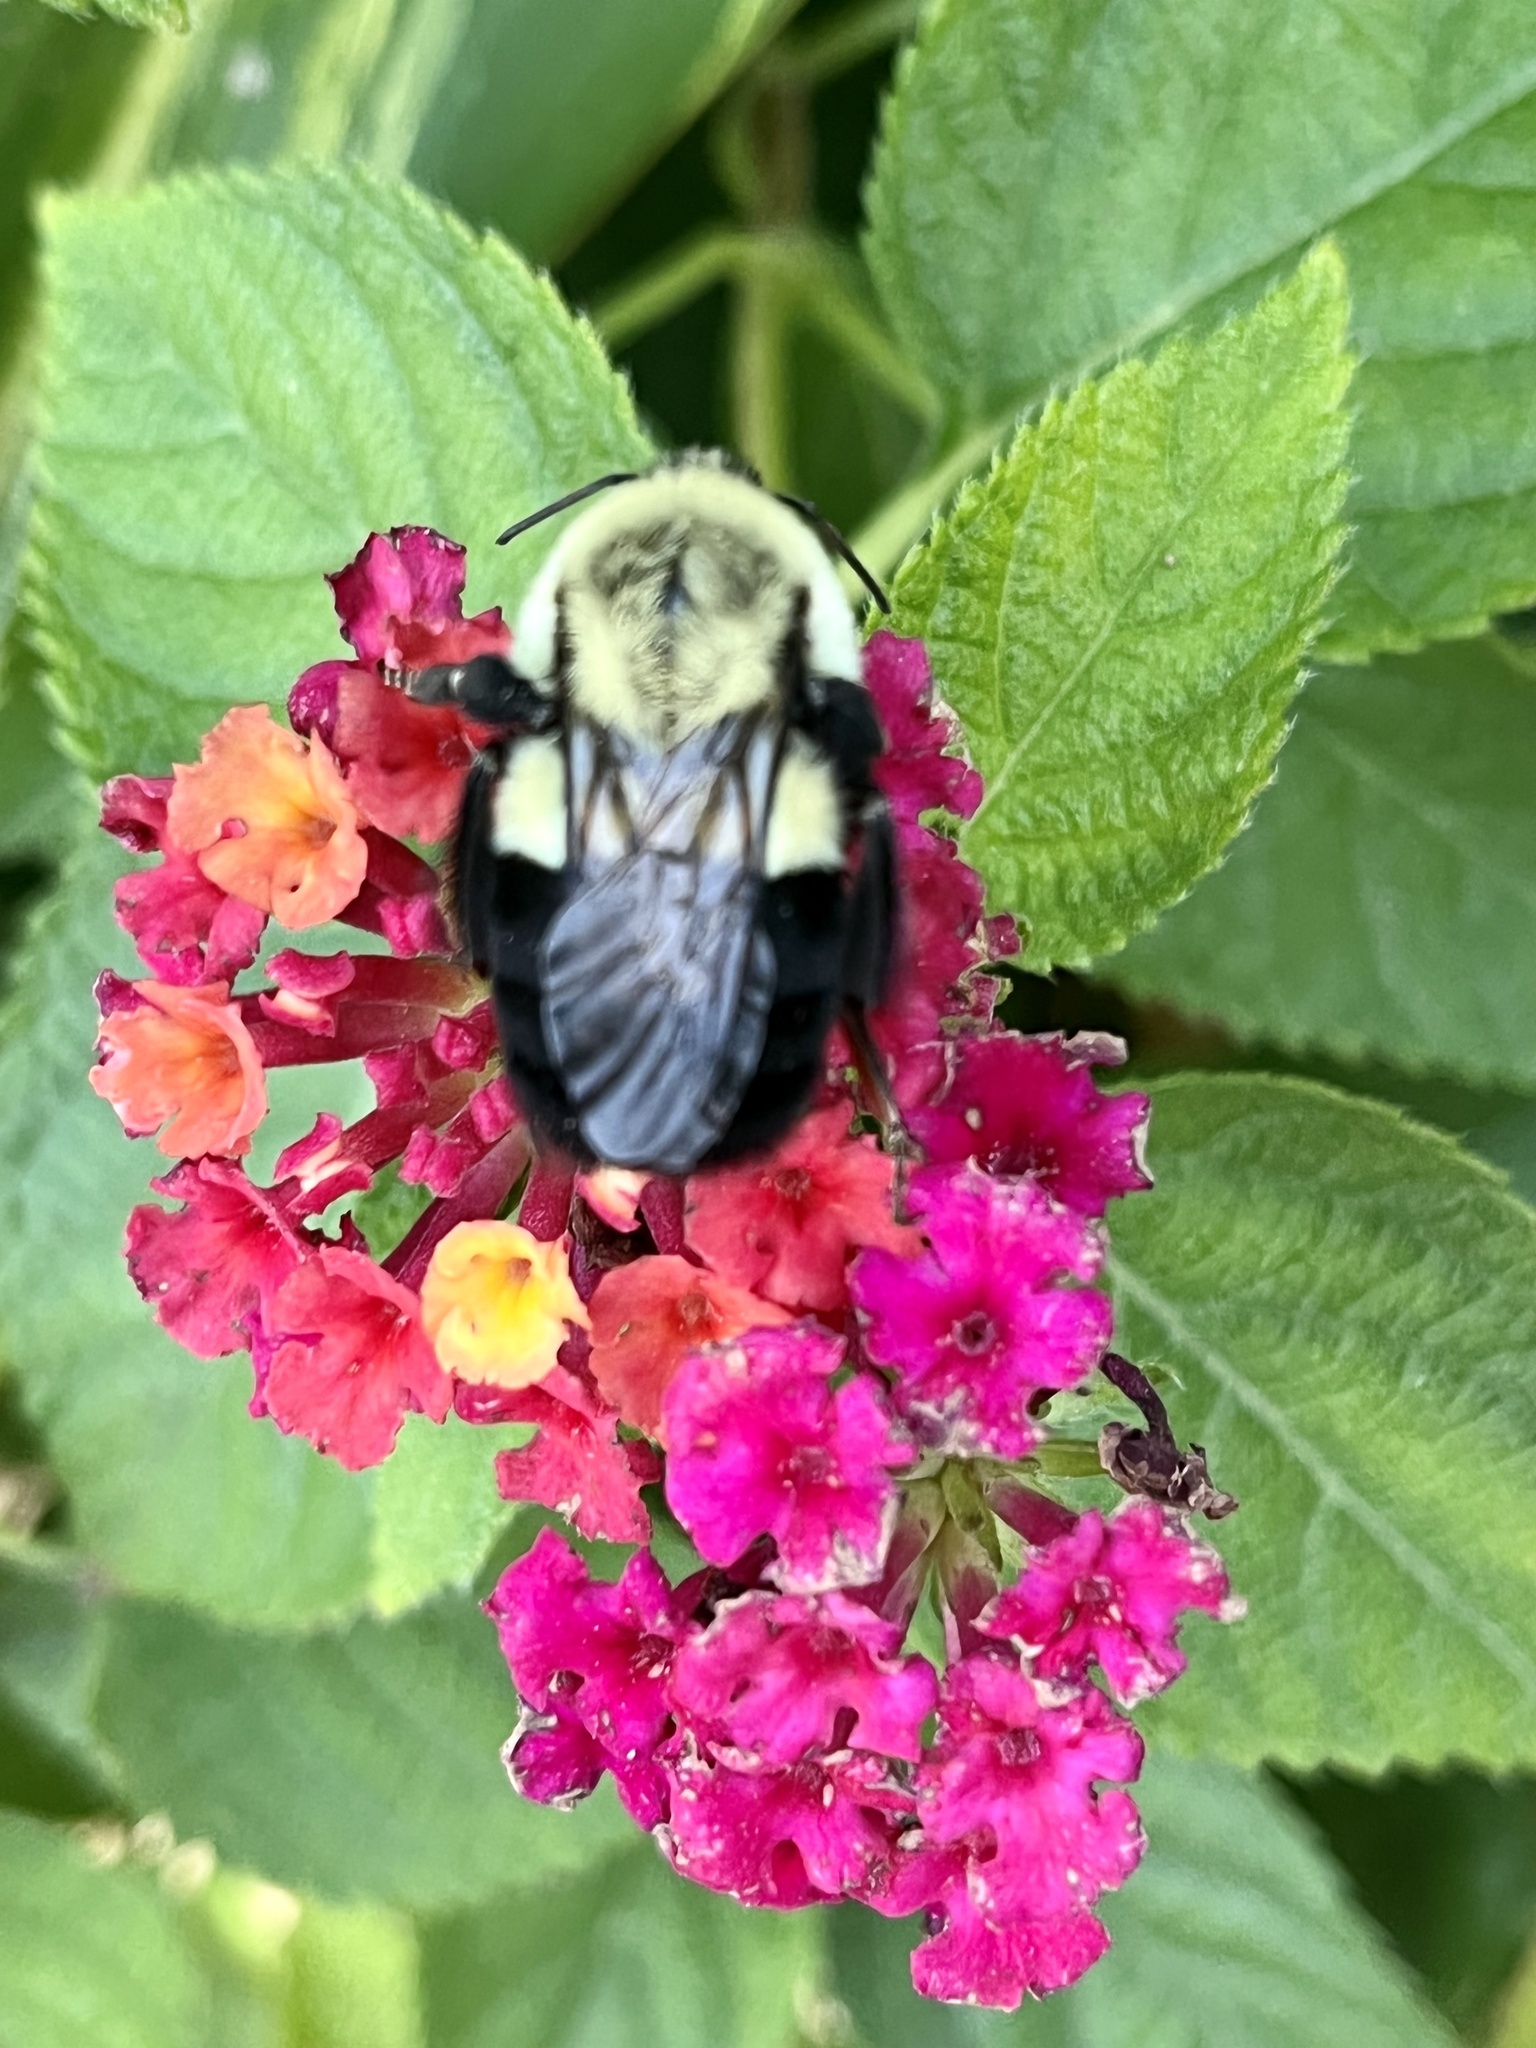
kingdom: Animalia
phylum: Arthropoda
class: Insecta
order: Hymenoptera
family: Apidae
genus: Bombus
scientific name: Bombus impatiens
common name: Common eastern bumble bee
